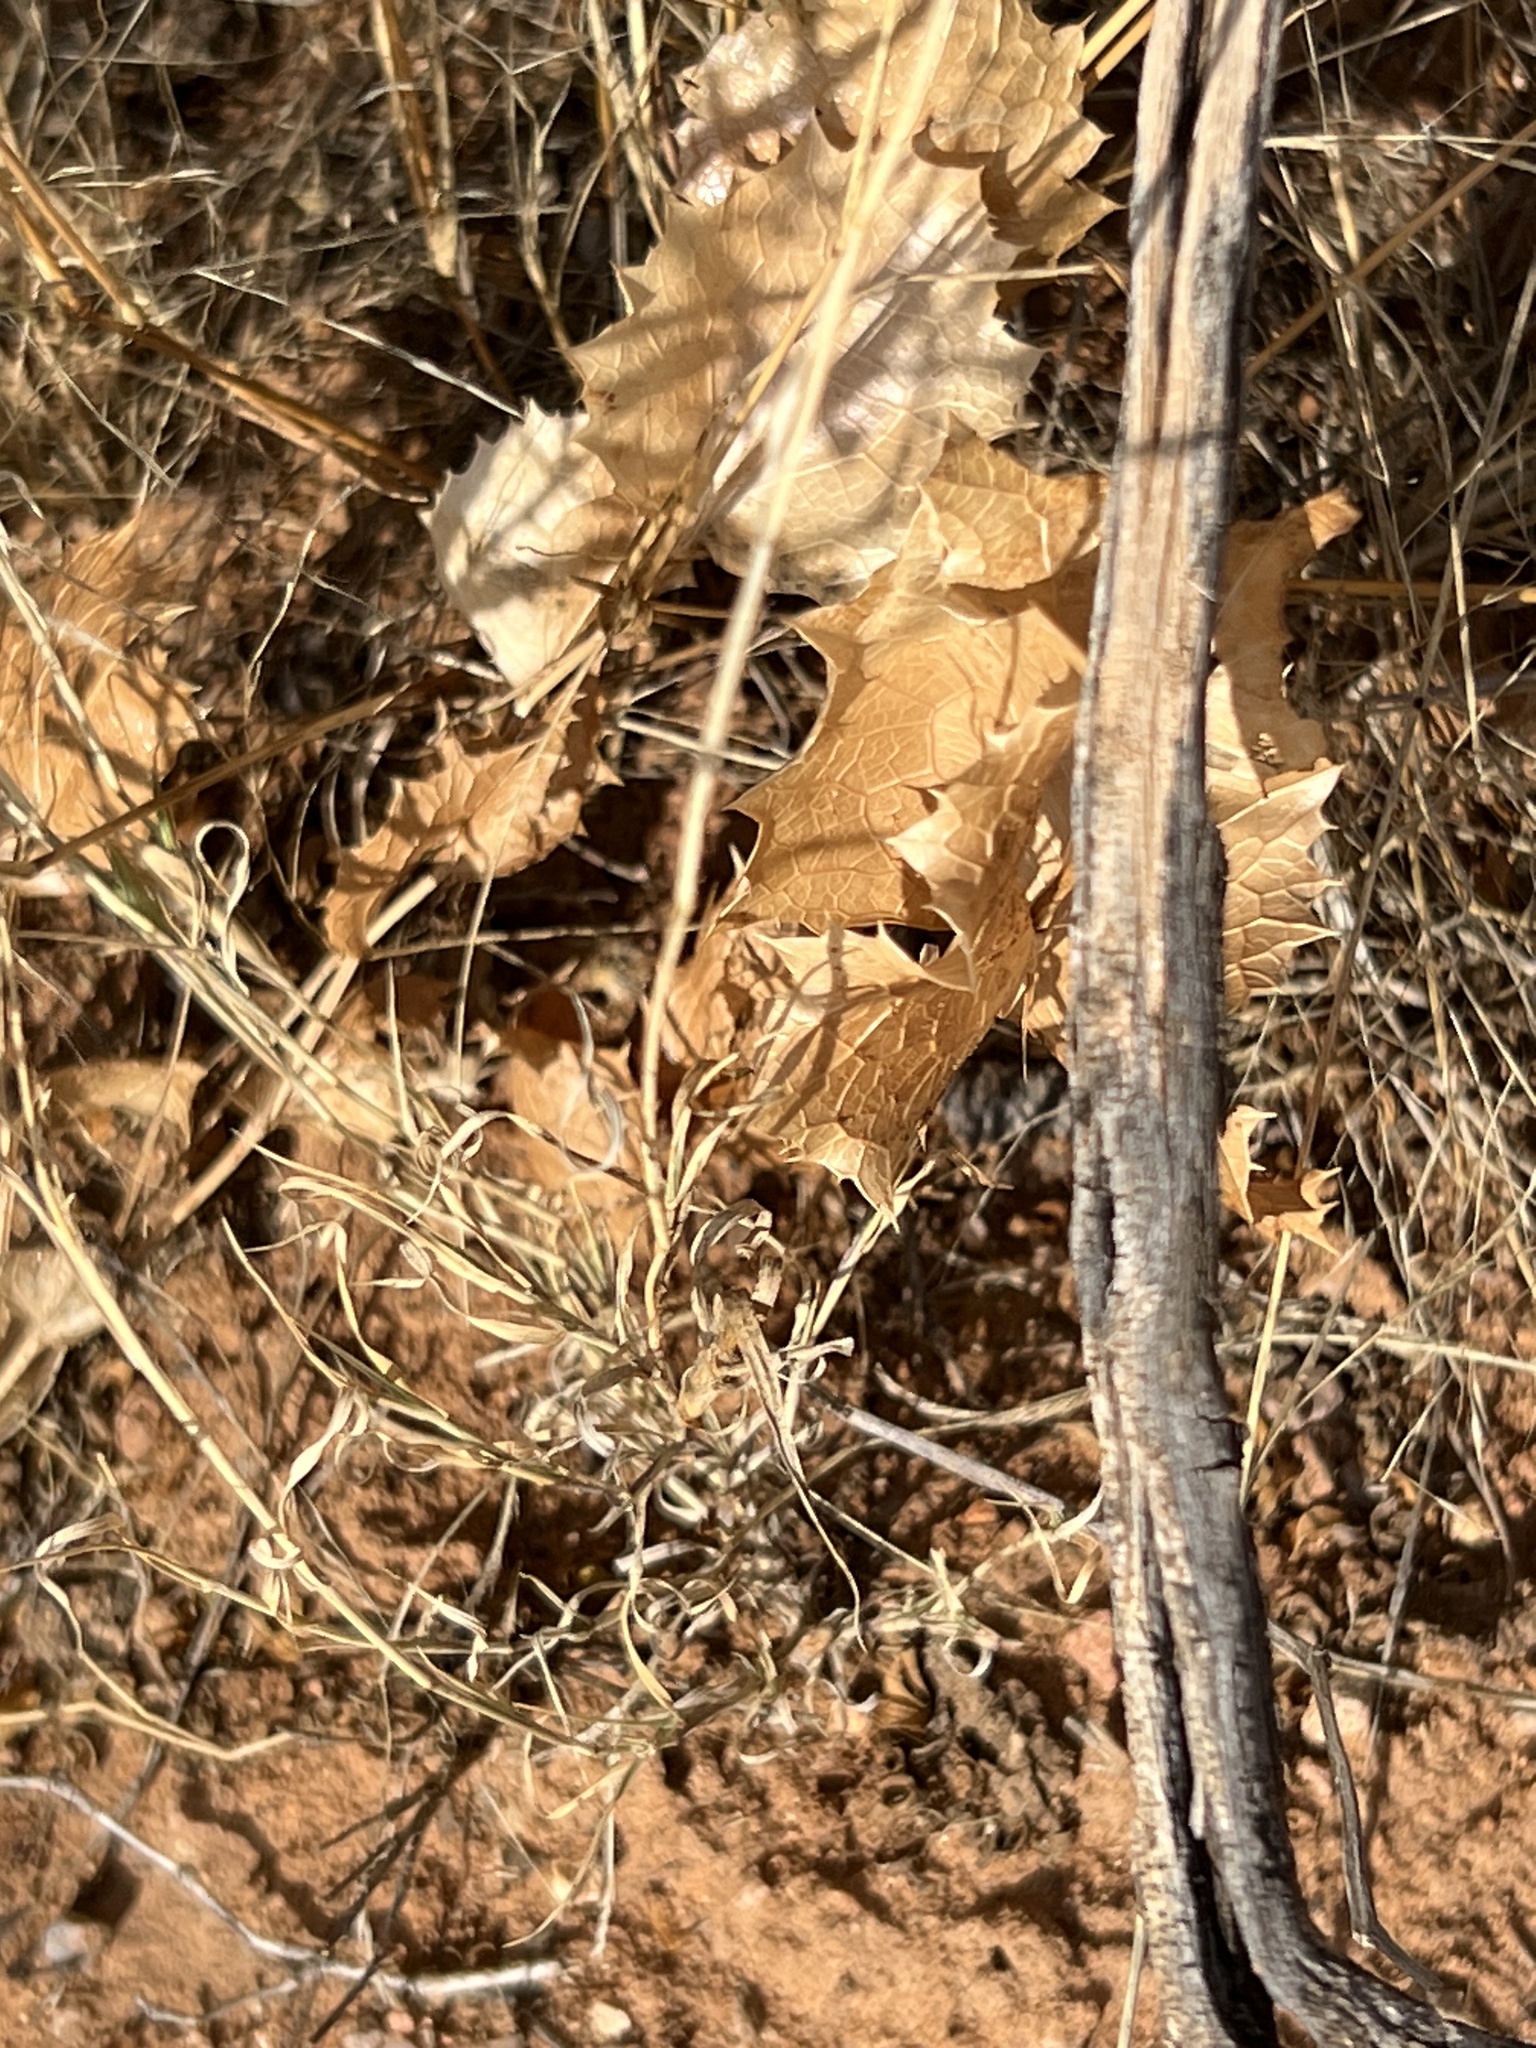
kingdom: Plantae
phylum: Tracheophyta
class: Magnoliopsida
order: Asterales
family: Asteraceae
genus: Acourtia
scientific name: Acourtia nana
